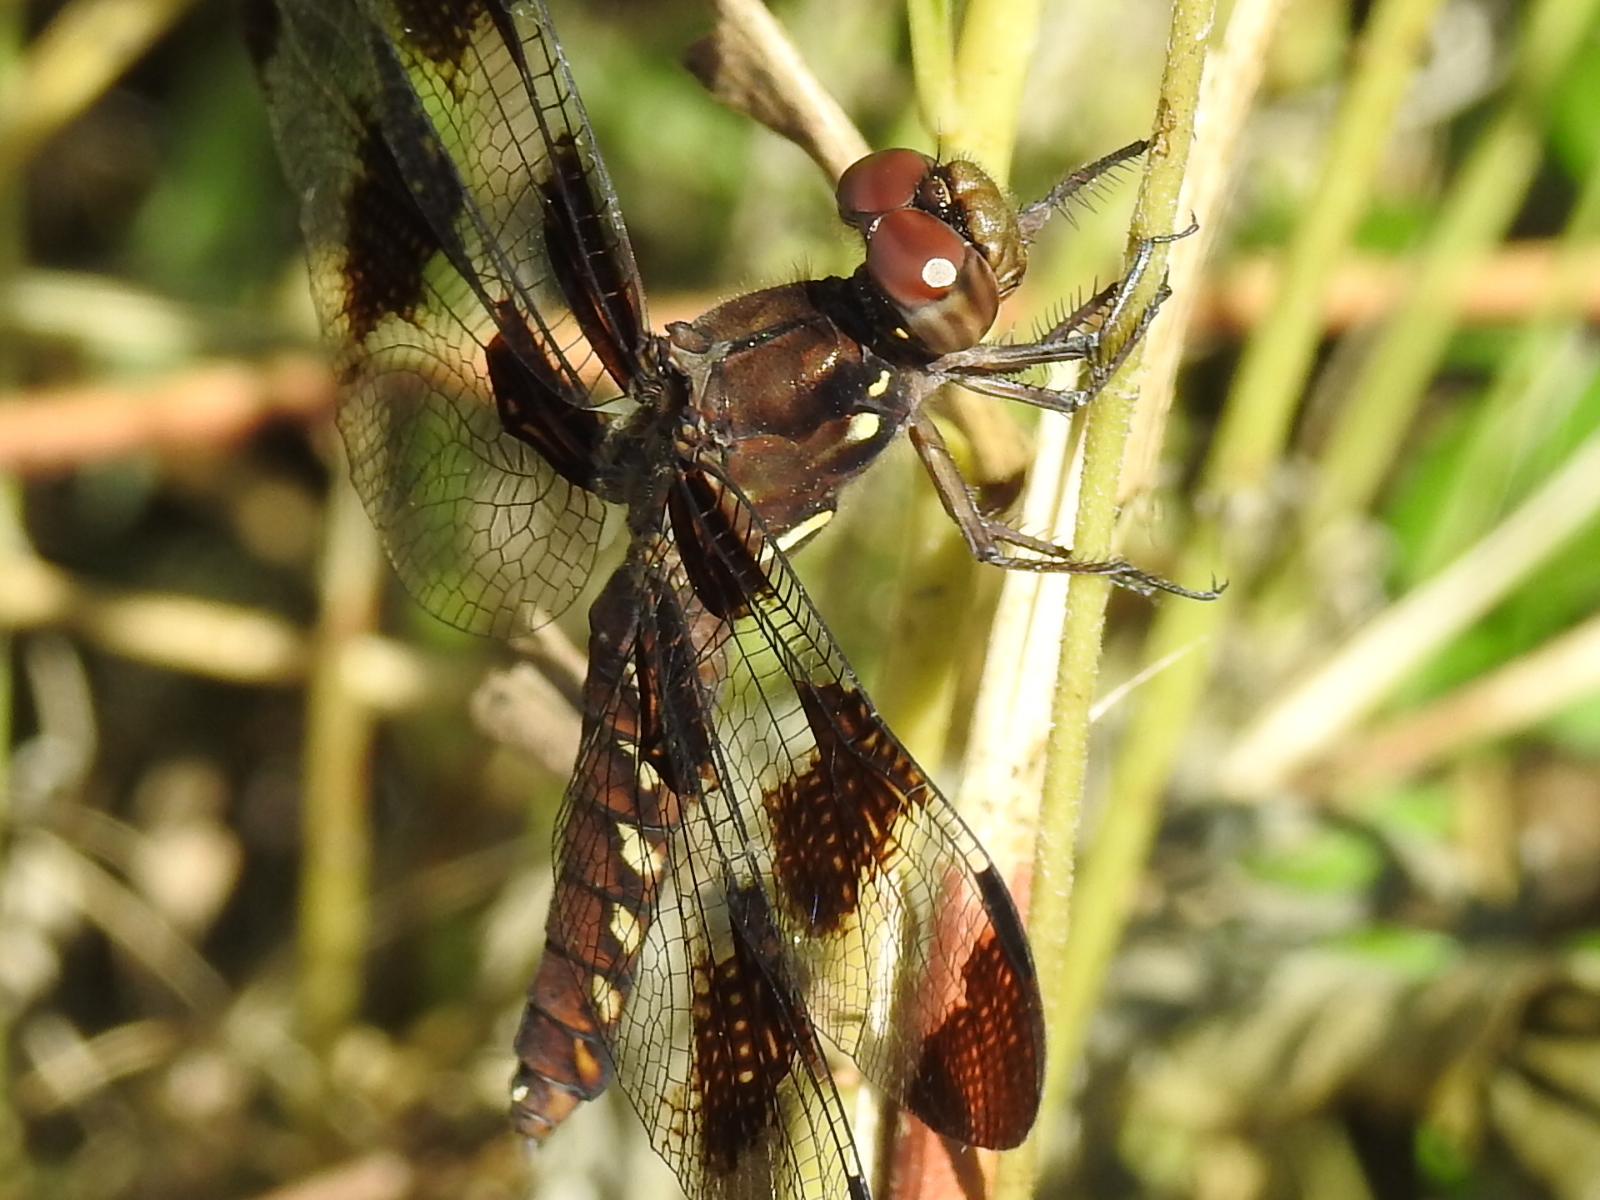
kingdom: Animalia
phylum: Arthropoda
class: Insecta
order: Odonata
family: Libellulidae
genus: Plathemis
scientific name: Plathemis lydia
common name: Common whitetail
